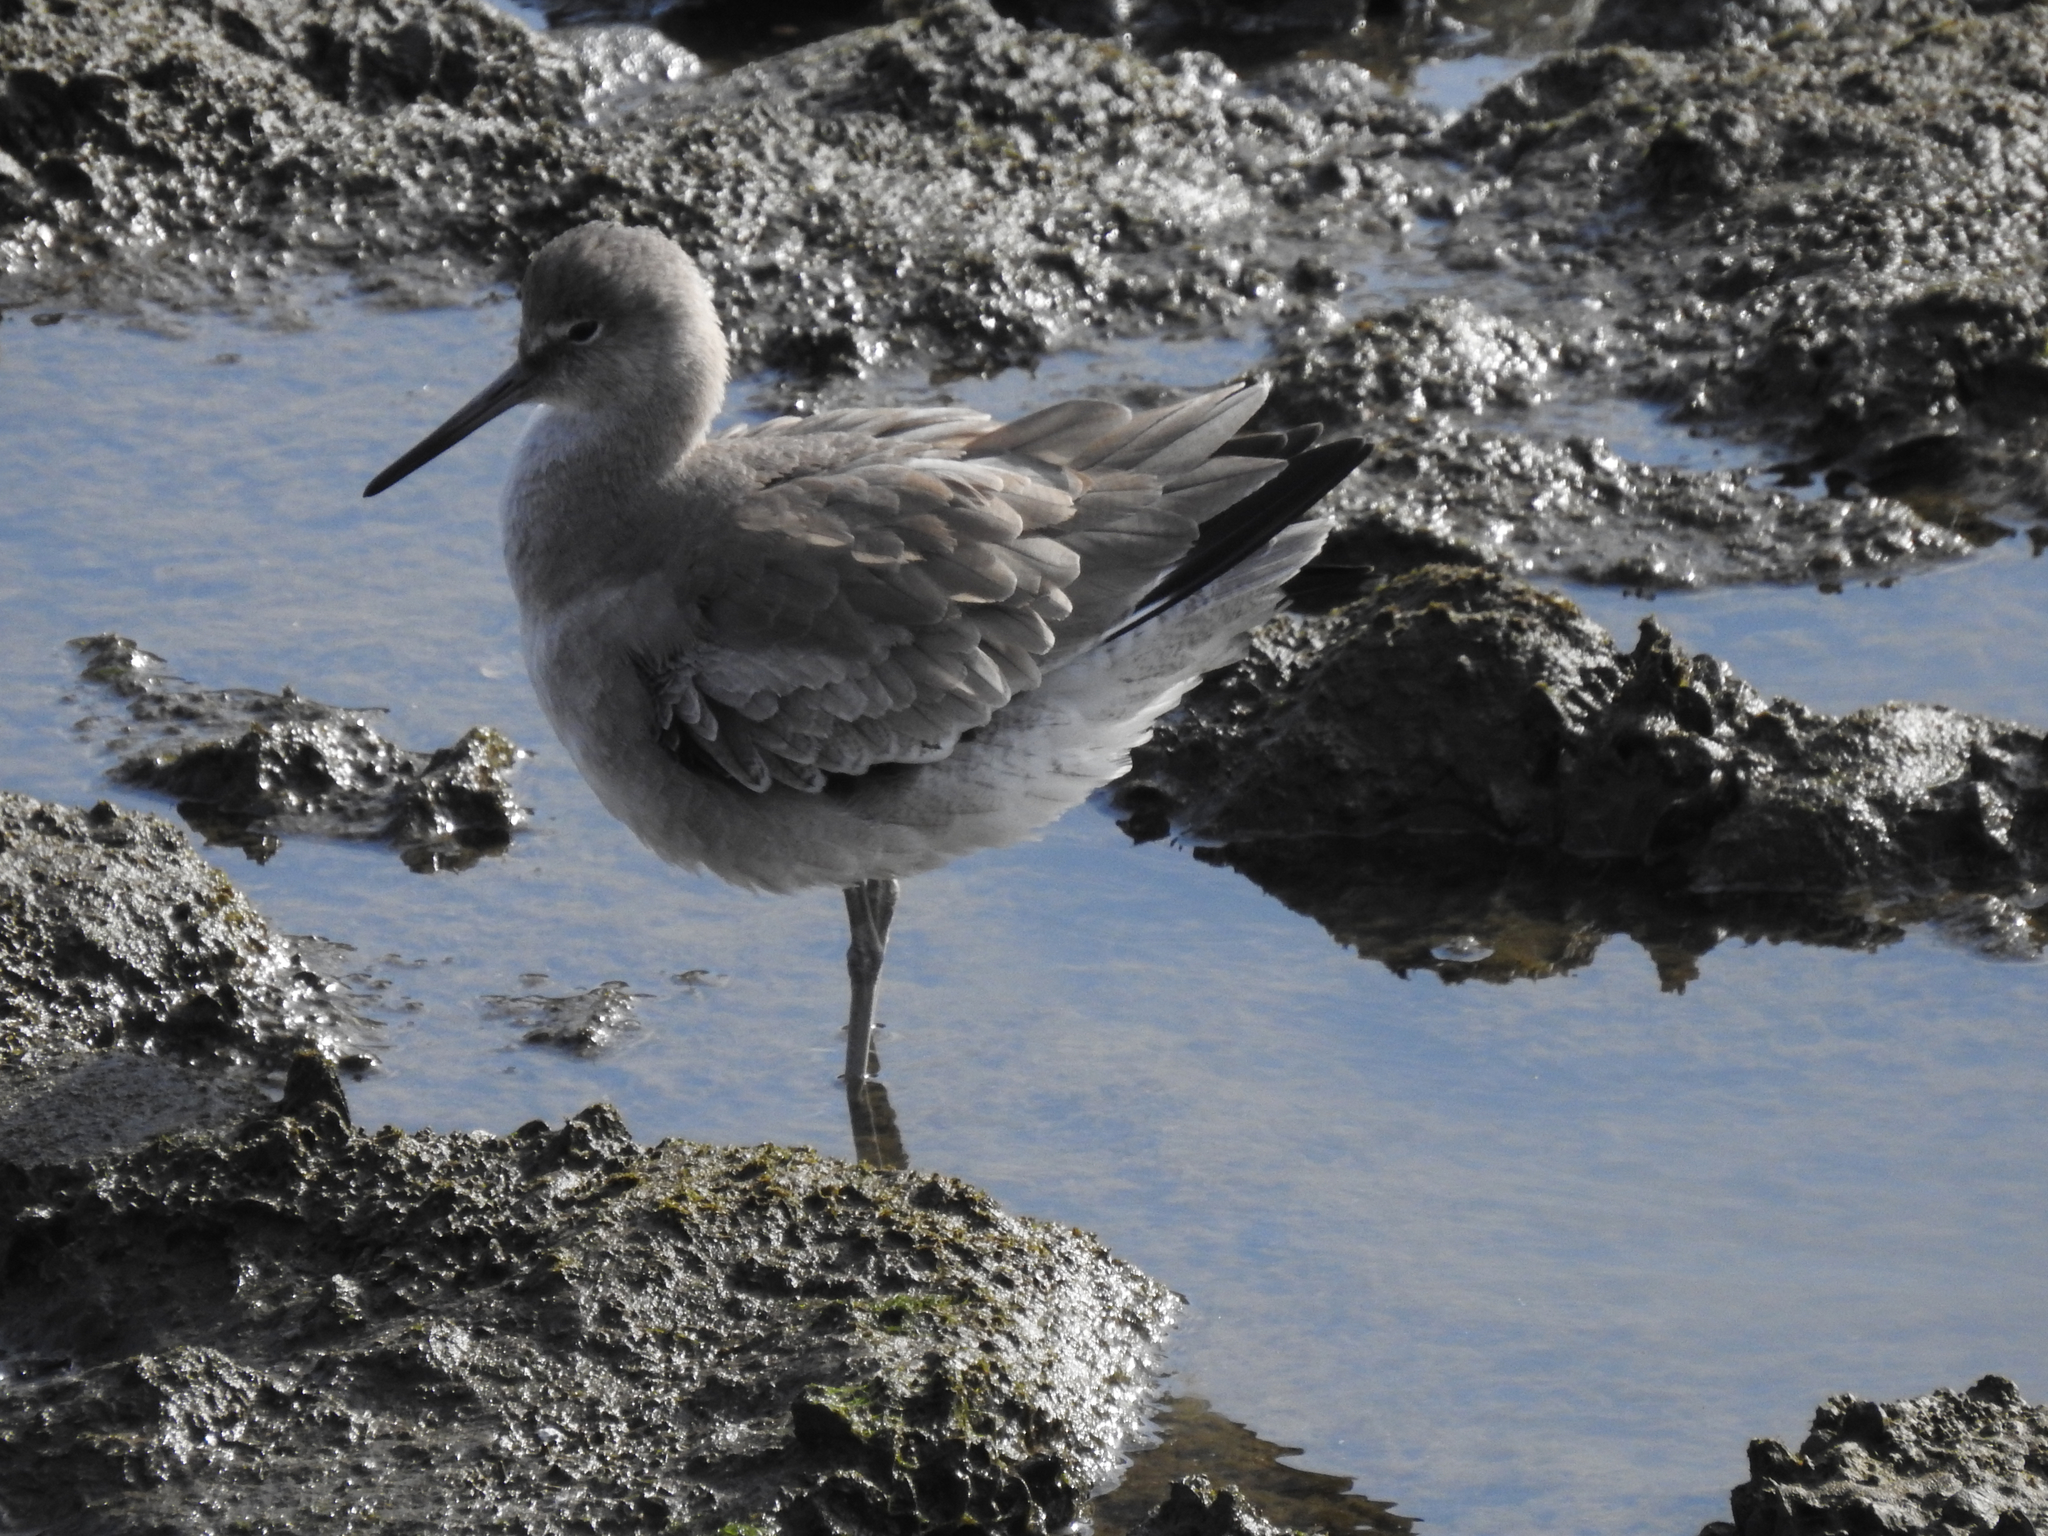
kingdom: Animalia
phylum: Chordata
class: Aves
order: Charadriiformes
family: Scolopacidae
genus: Tringa
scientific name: Tringa semipalmata
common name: Willet
